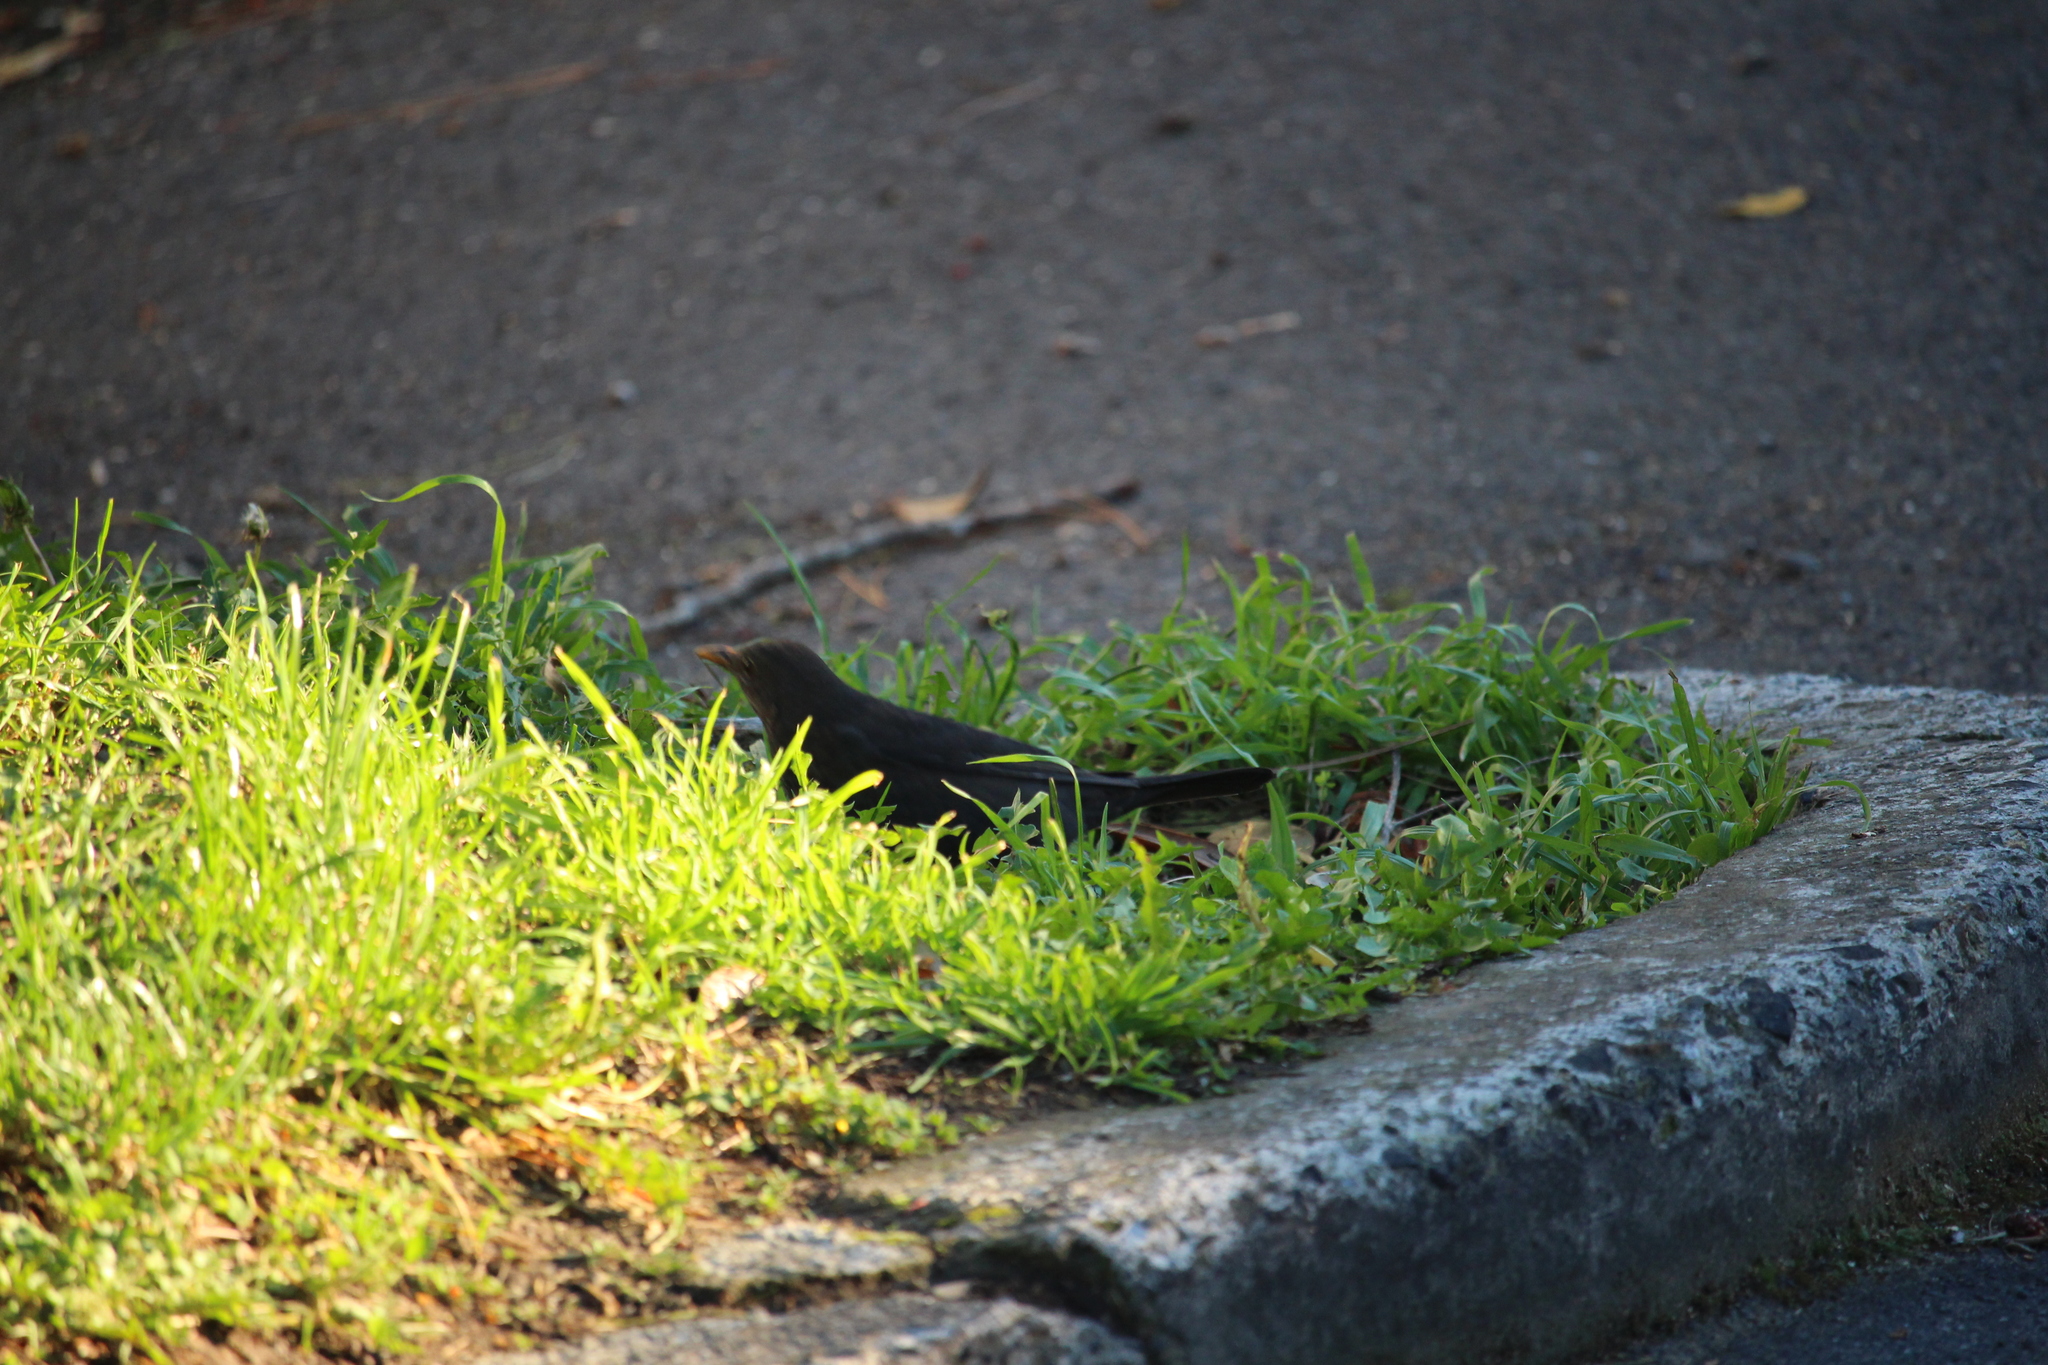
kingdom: Animalia
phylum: Chordata
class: Aves
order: Passeriformes
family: Turdidae
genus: Turdus
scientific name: Turdus merula
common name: Common blackbird
